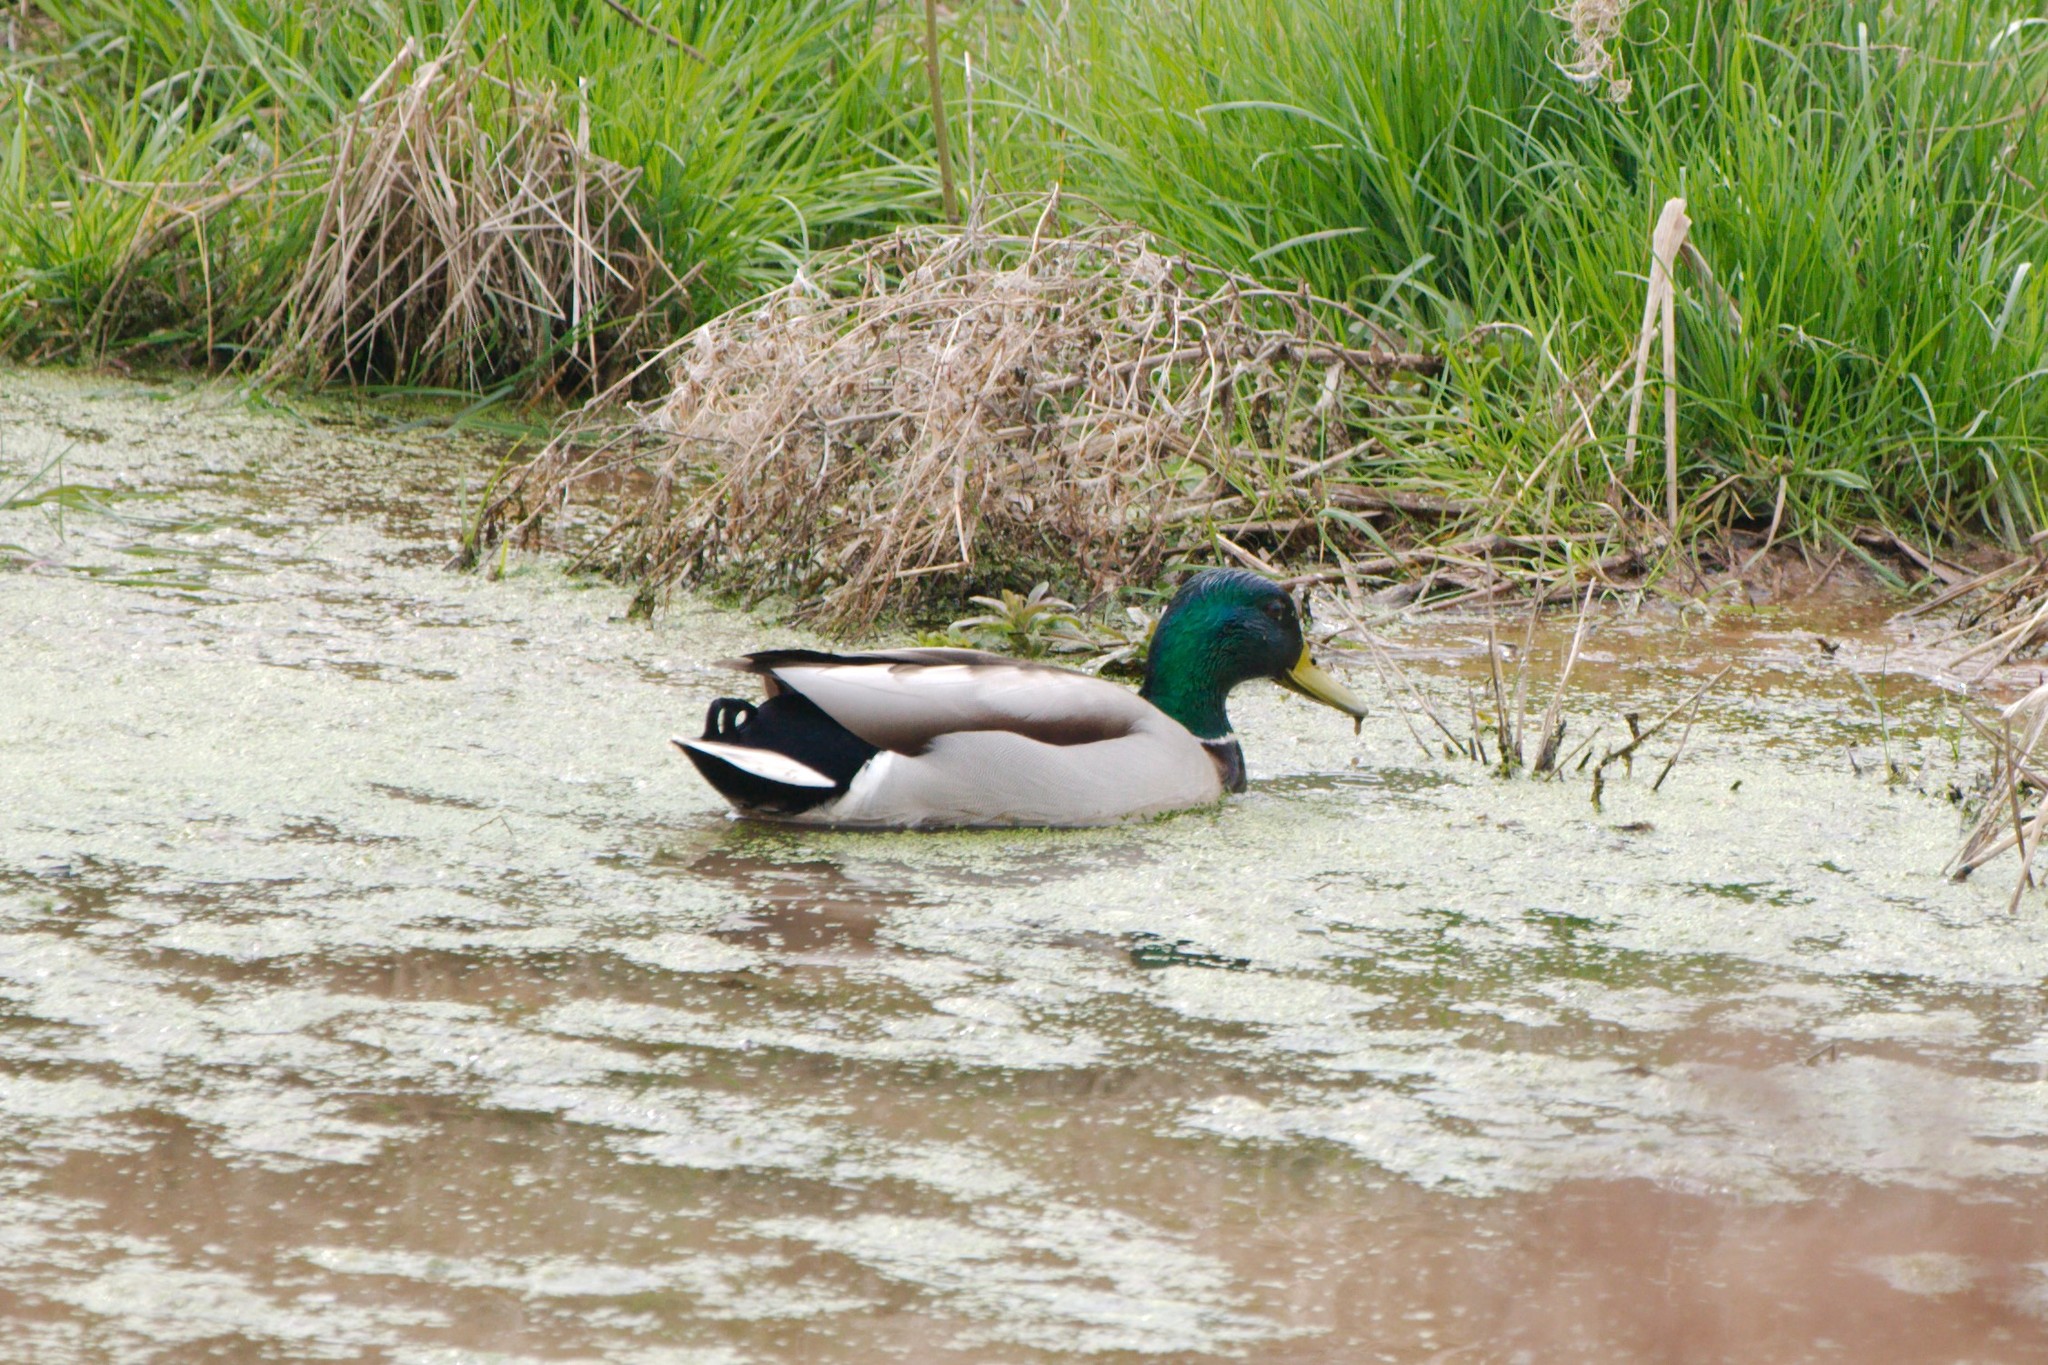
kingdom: Animalia
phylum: Chordata
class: Aves
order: Anseriformes
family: Anatidae
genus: Anas
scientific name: Anas platyrhynchos
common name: Mallard
